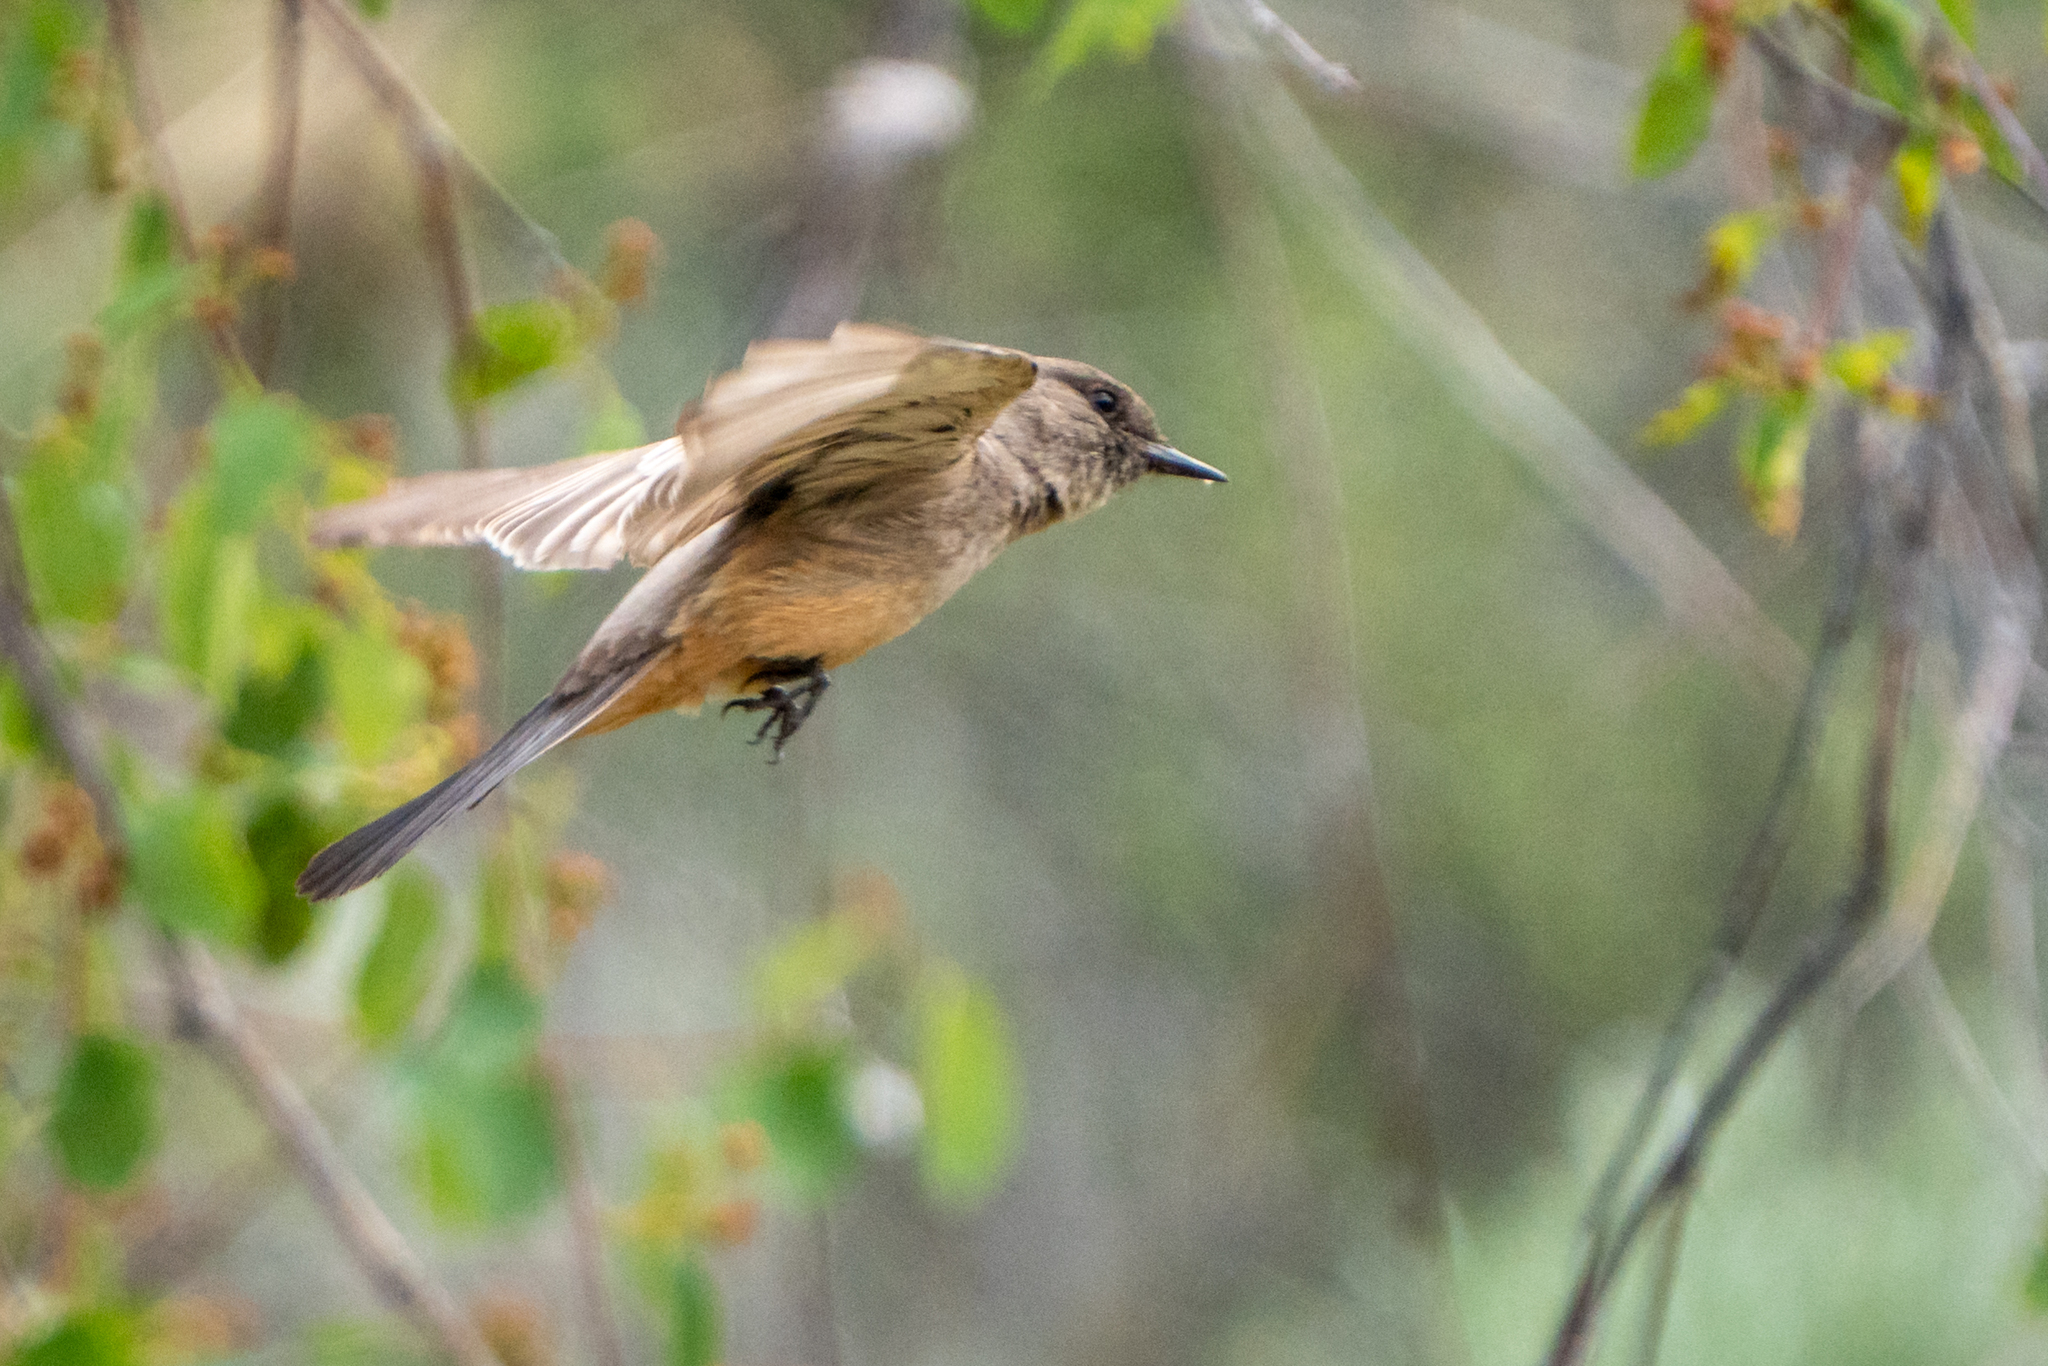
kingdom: Animalia
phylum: Chordata
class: Aves
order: Passeriformes
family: Tyrannidae
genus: Sayornis
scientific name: Sayornis saya
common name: Say's phoebe
